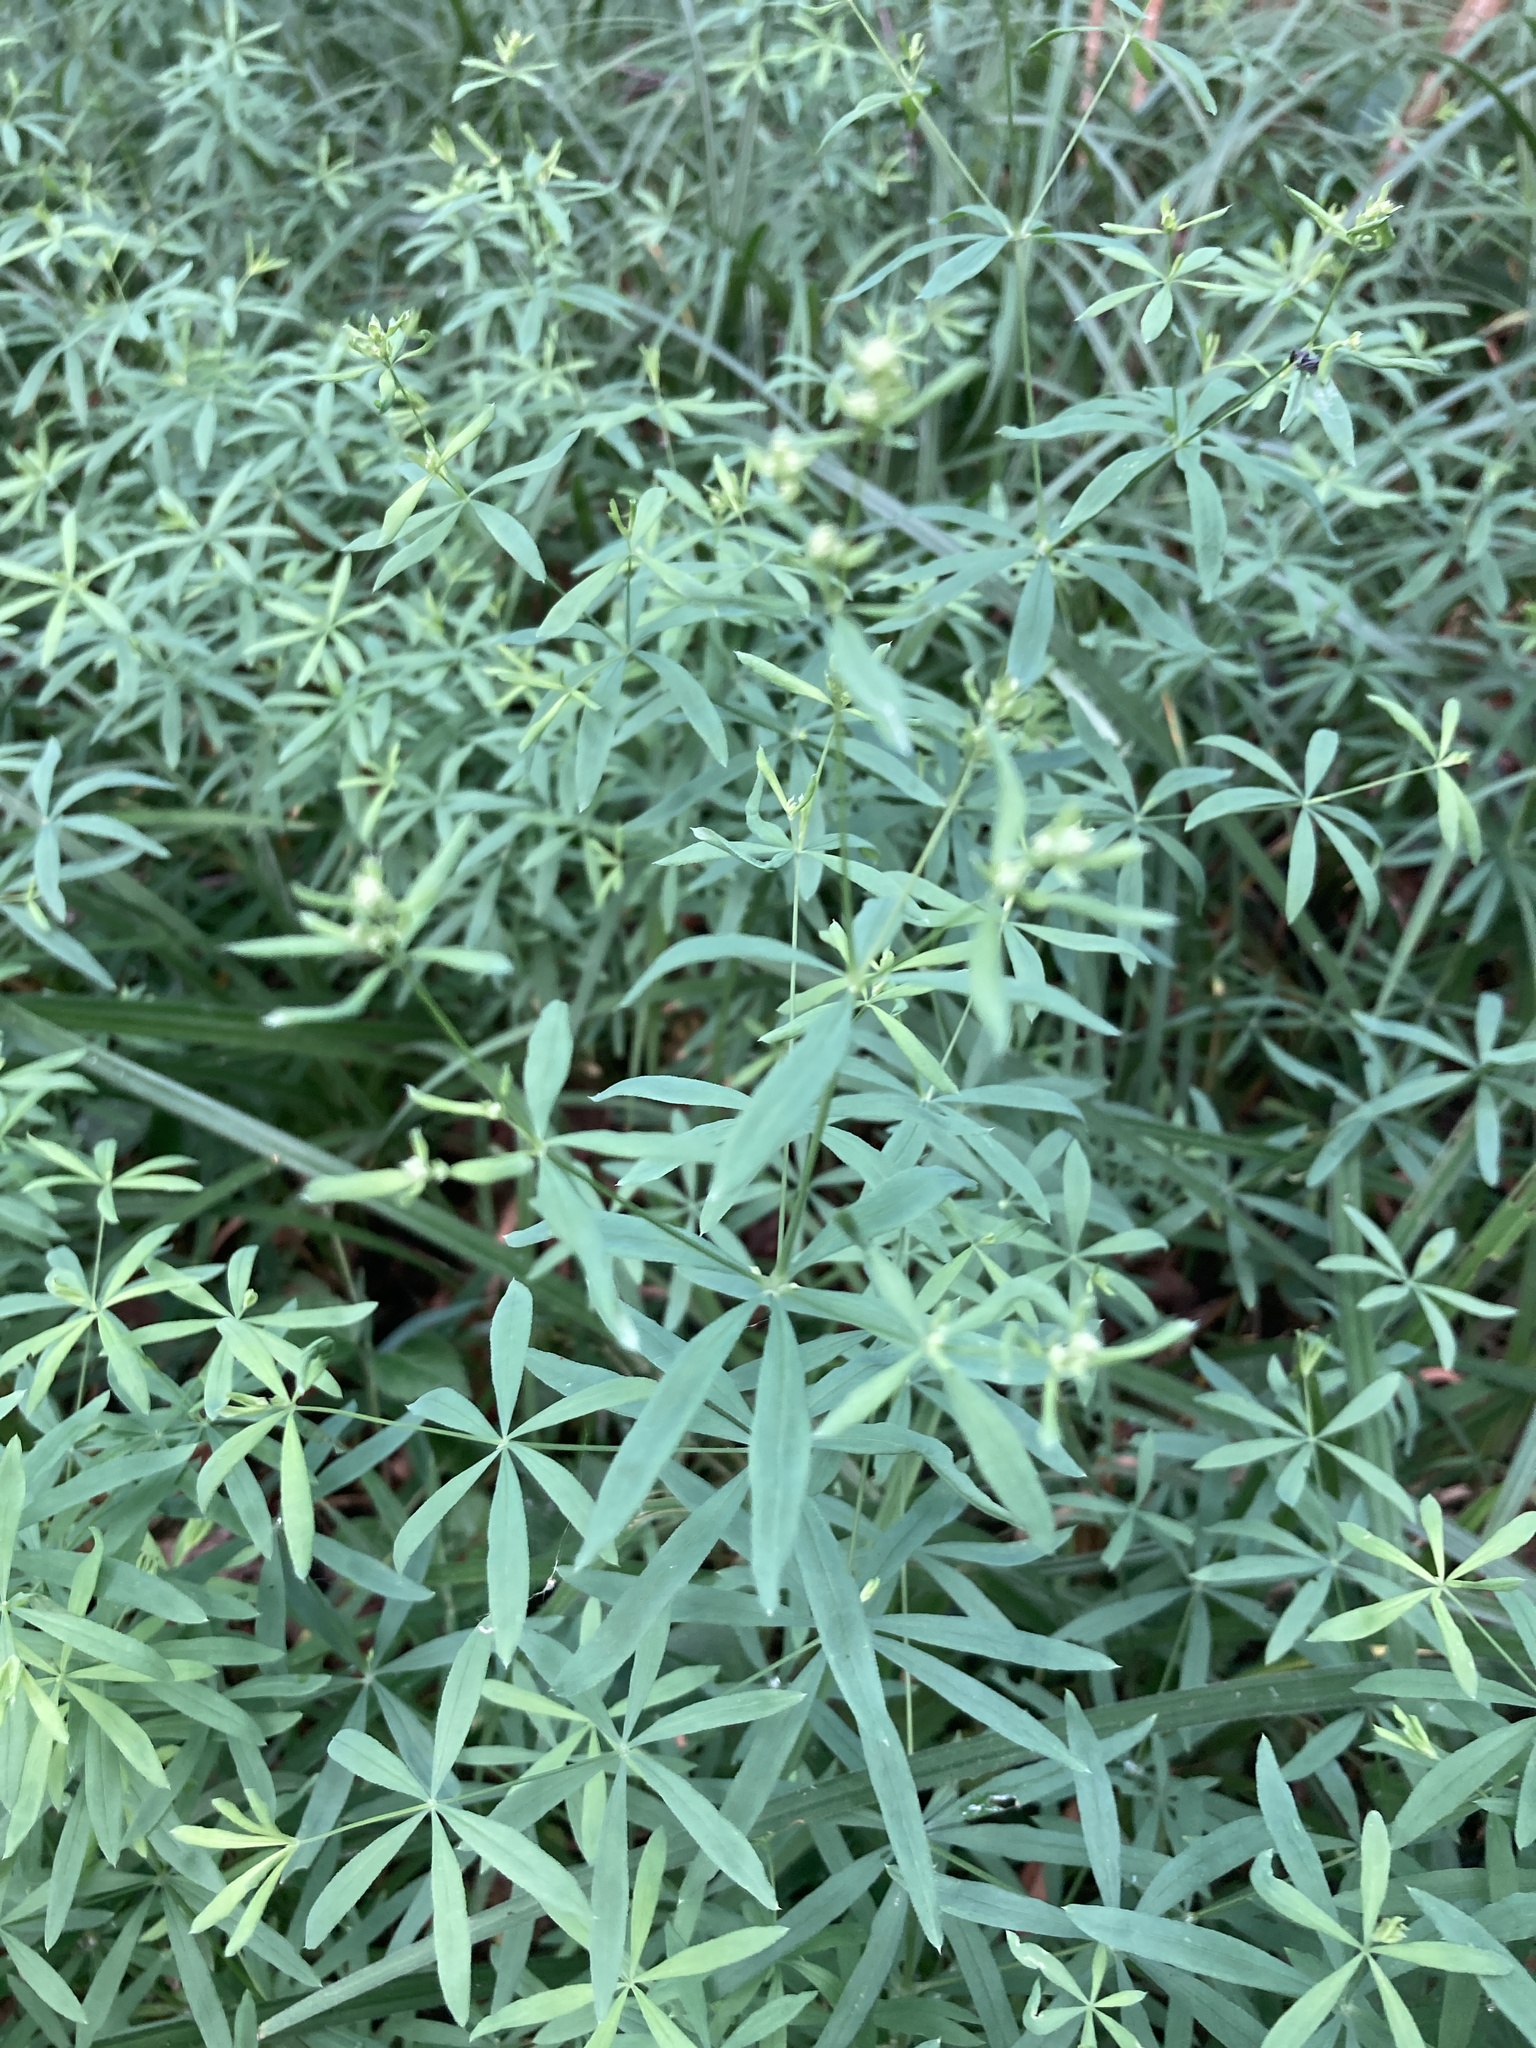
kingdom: Plantae
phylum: Tracheophyta
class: Magnoliopsida
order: Gentianales
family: Rubiaceae
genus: Galium
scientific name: Galium intermedium
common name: Bedstraw
